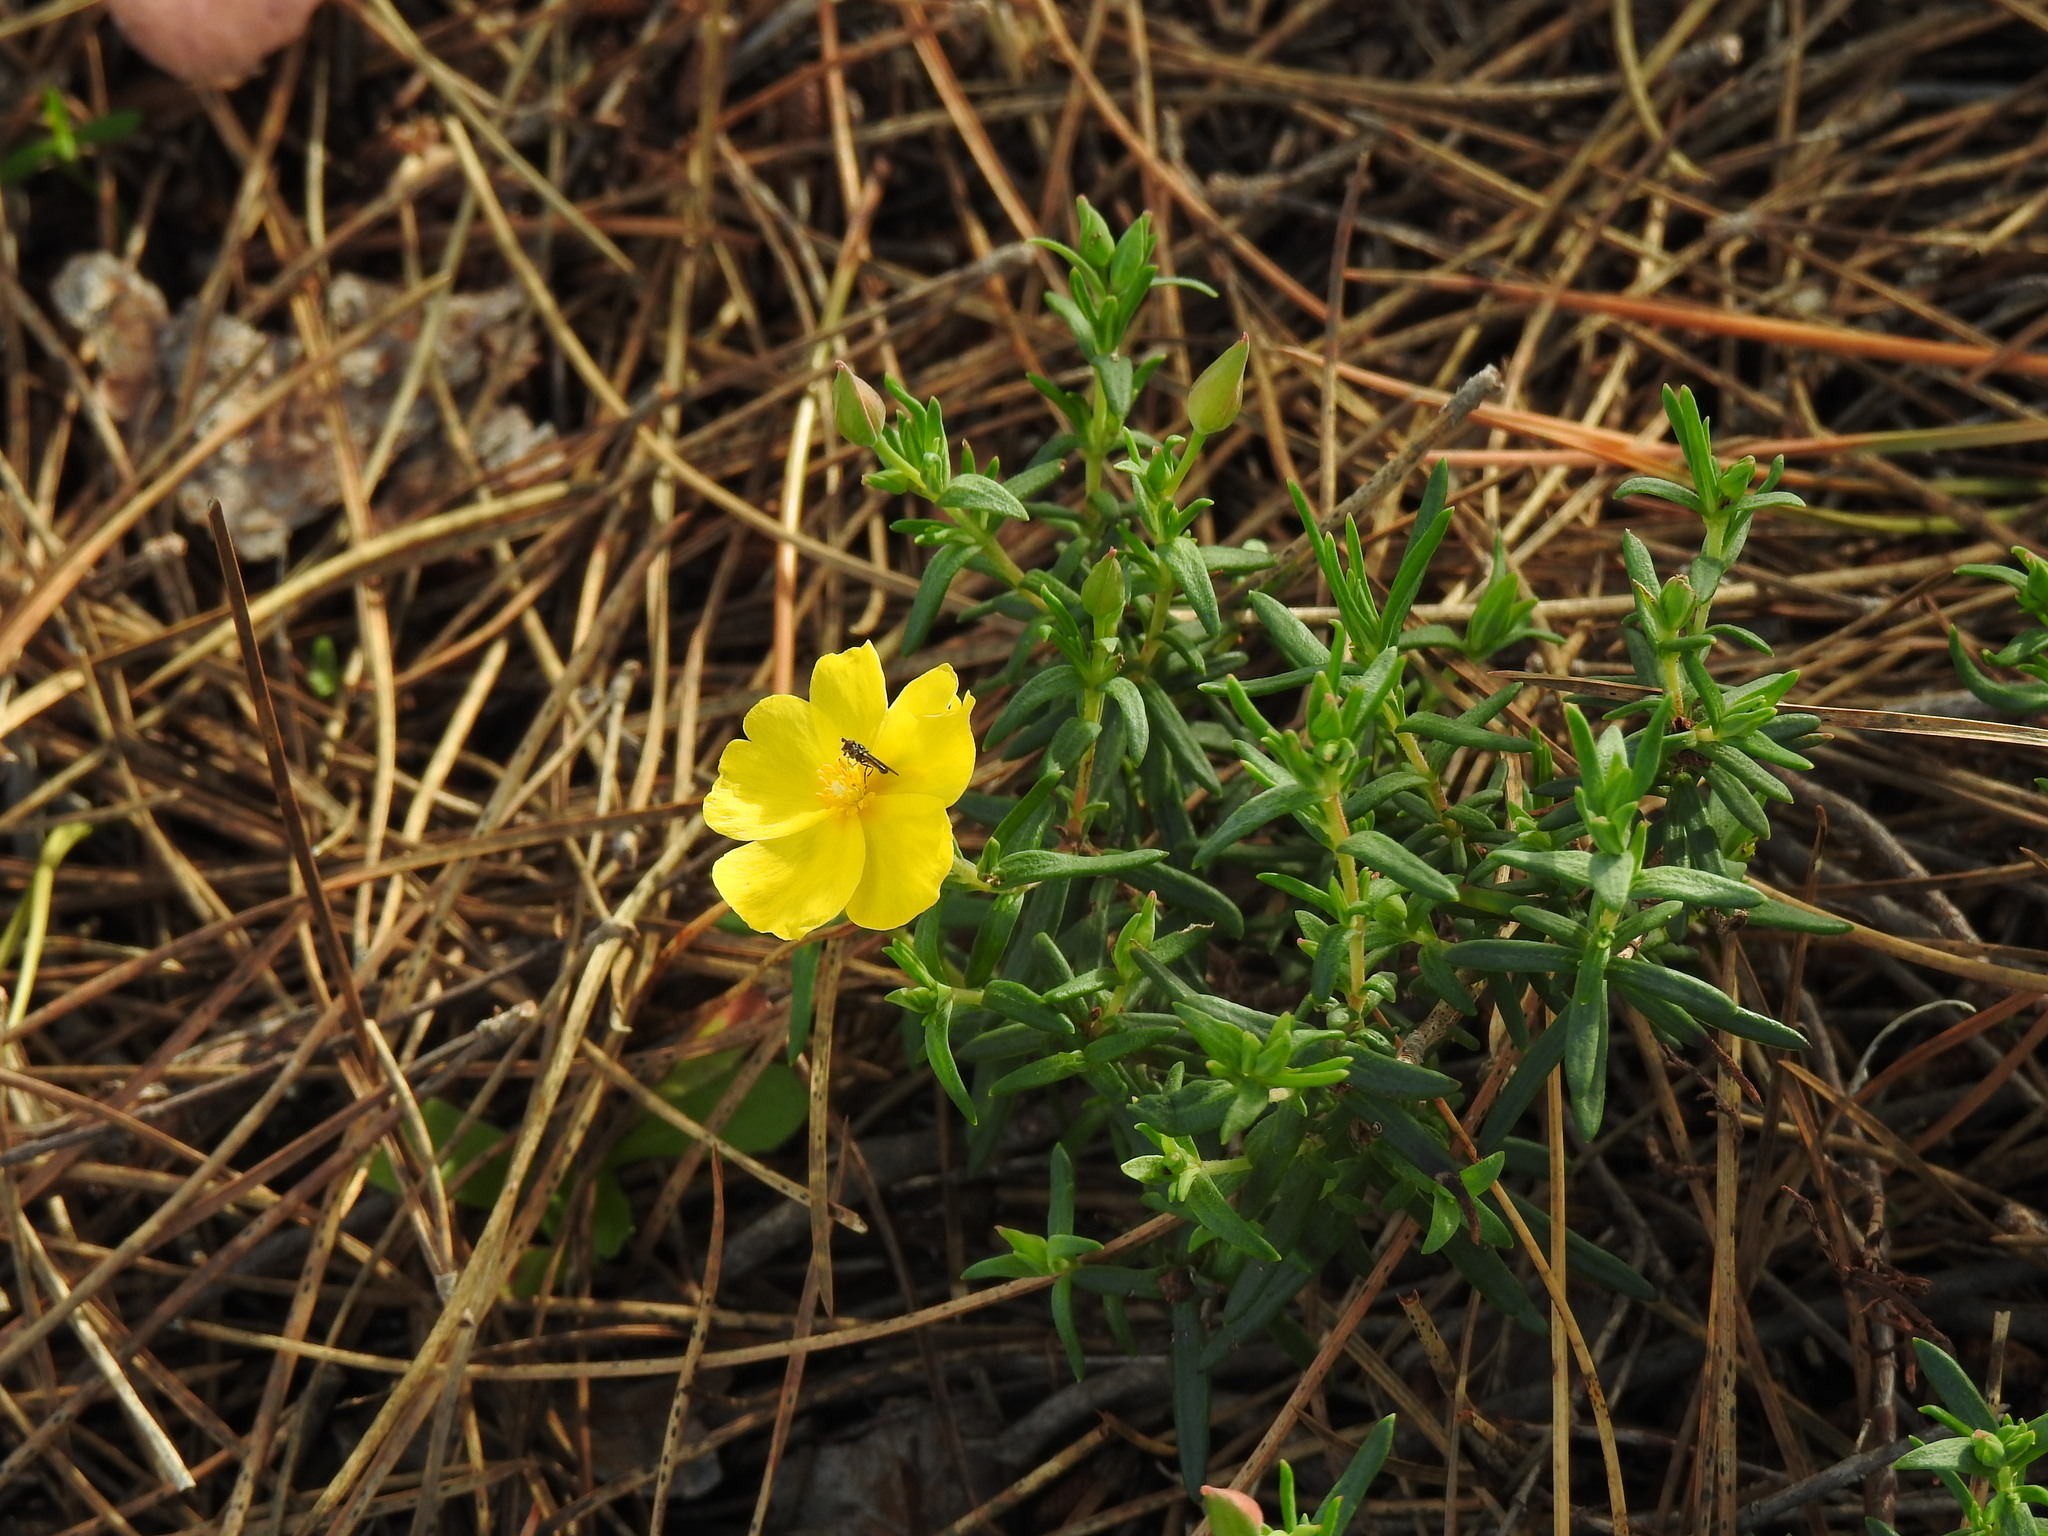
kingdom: Plantae
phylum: Tracheophyta
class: Magnoliopsida
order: Malvales
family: Cistaceae
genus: Halimium
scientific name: Halimium calycinum
